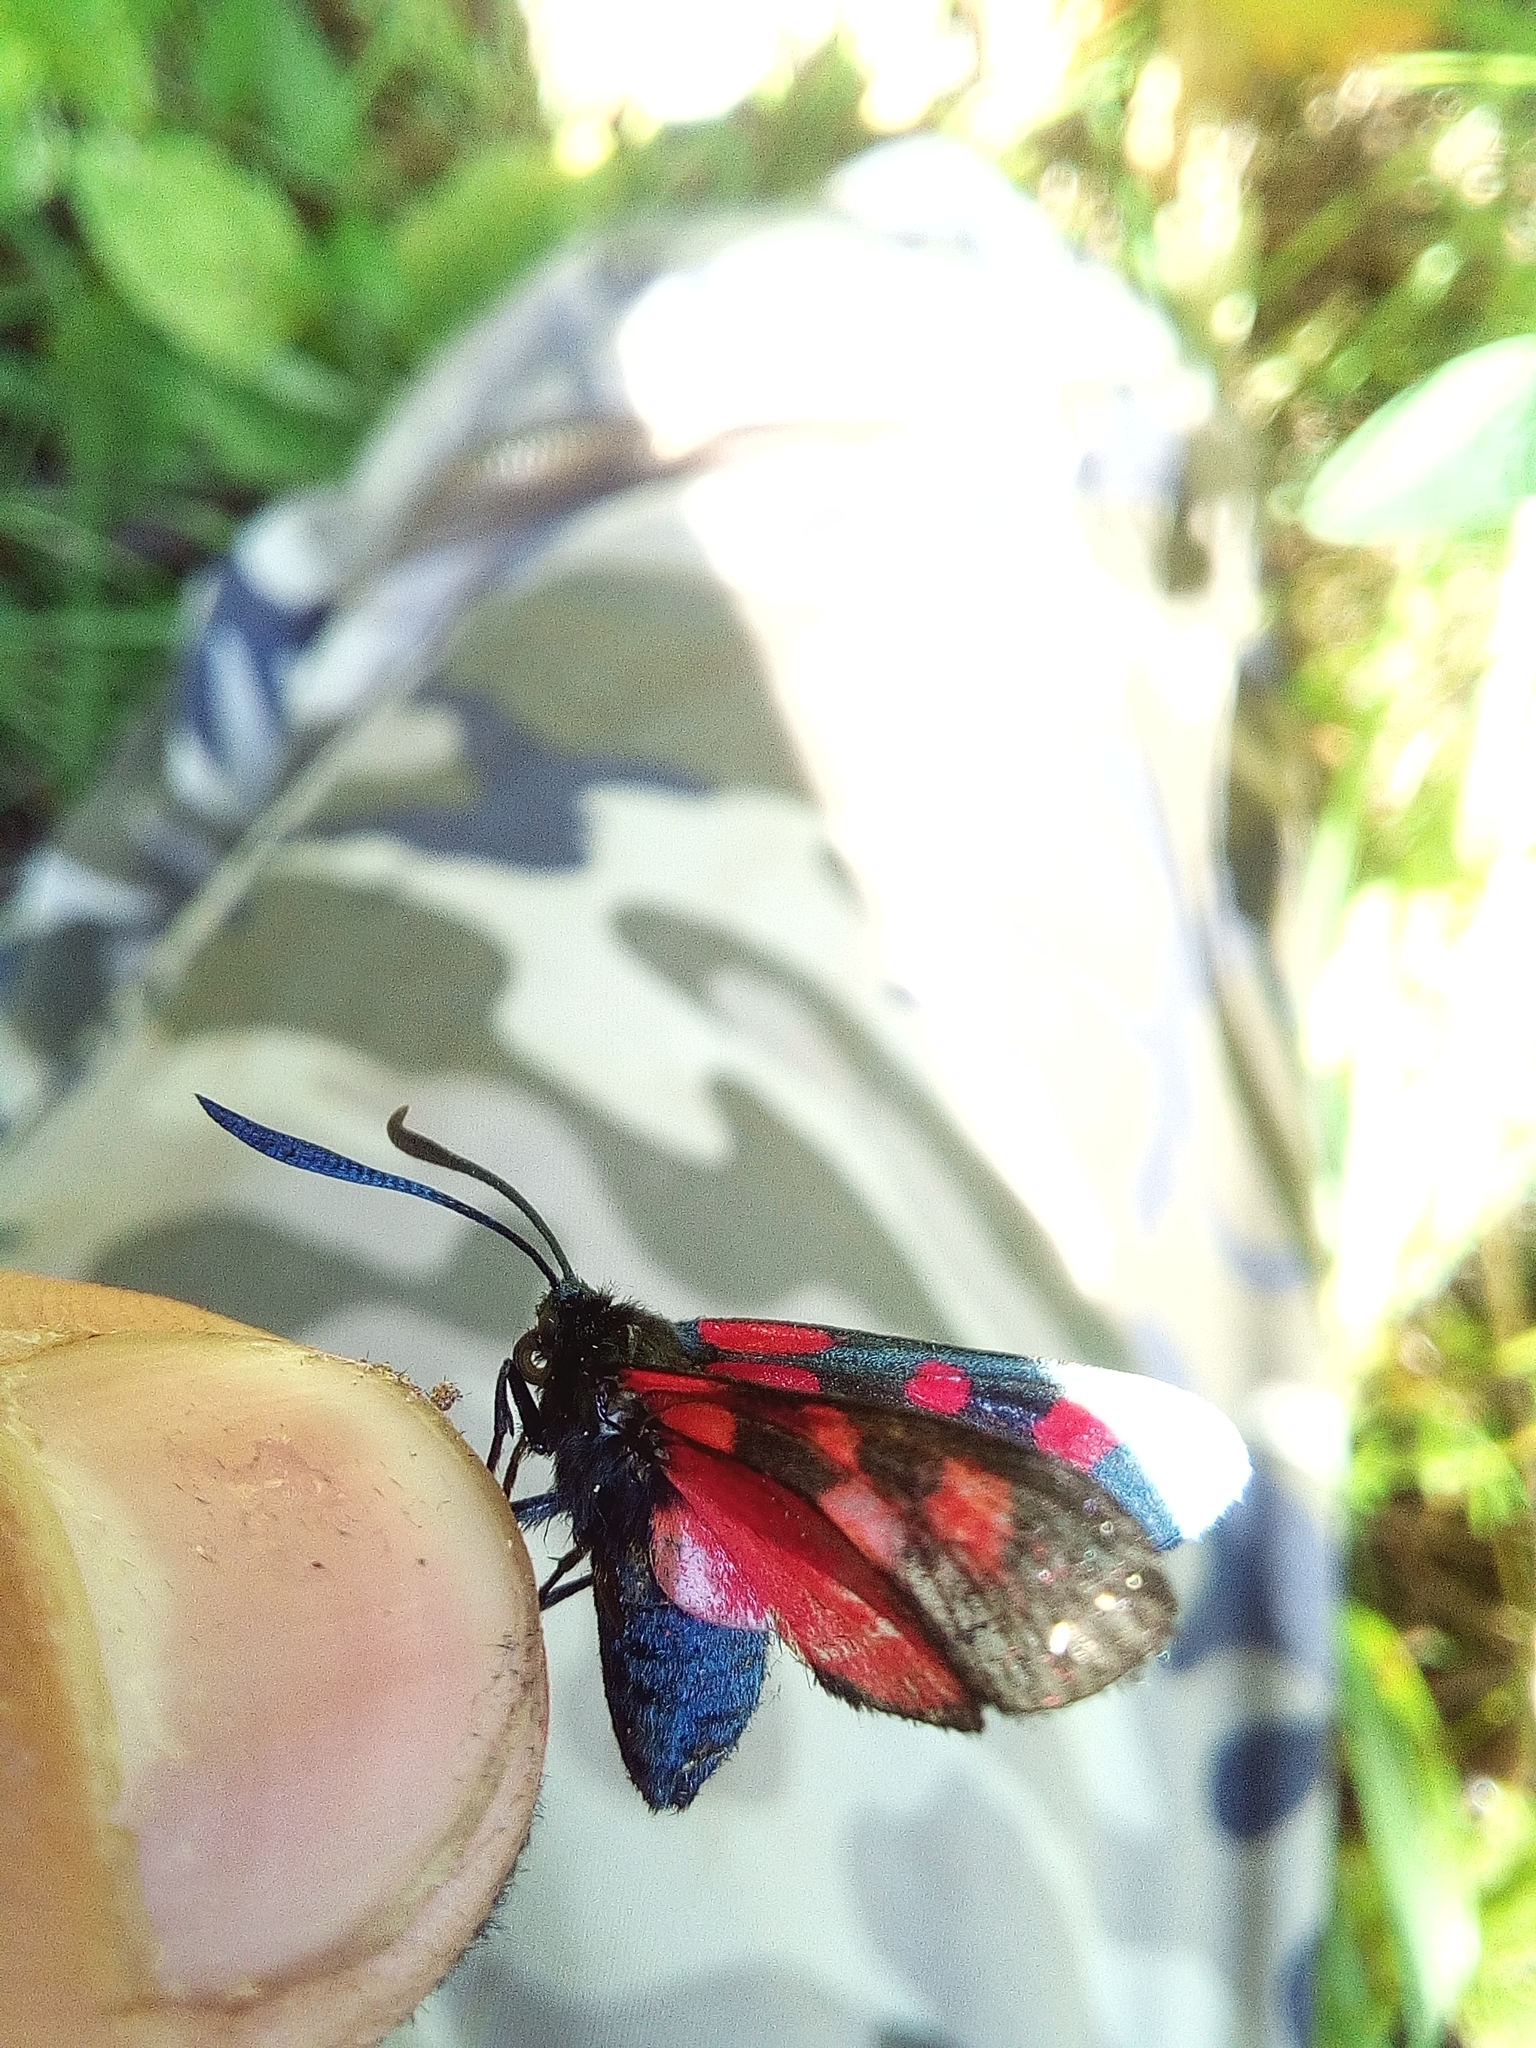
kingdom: Animalia
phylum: Arthropoda
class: Insecta
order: Lepidoptera
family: Zygaenidae
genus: Zygaena
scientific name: Zygaena lonicerae
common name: Narrow-bordered five-spot burnet
